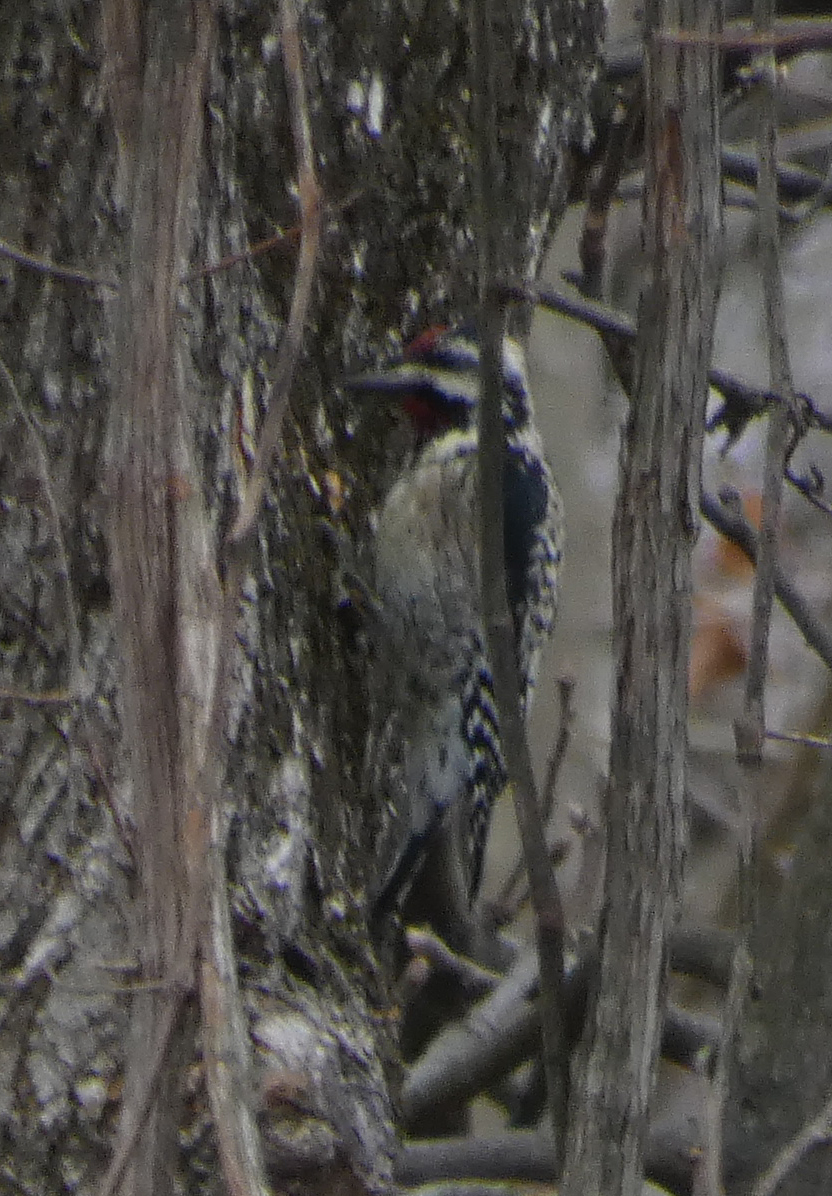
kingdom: Animalia
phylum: Chordata
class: Aves
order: Piciformes
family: Picidae
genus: Sphyrapicus
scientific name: Sphyrapicus varius
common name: Yellow-bellied sapsucker
